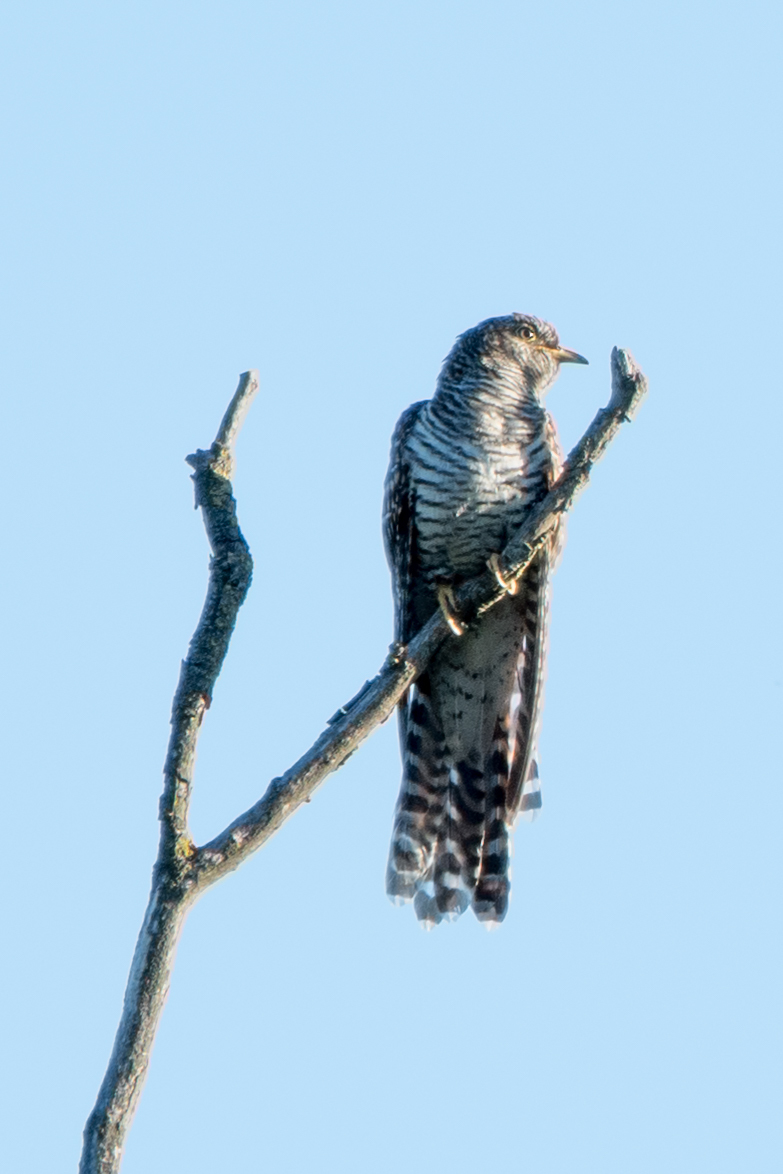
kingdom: Animalia
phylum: Chordata
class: Aves
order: Cuculiformes
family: Cuculidae
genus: Cuculus
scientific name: Cuculus canorus
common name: Common cuckoo
